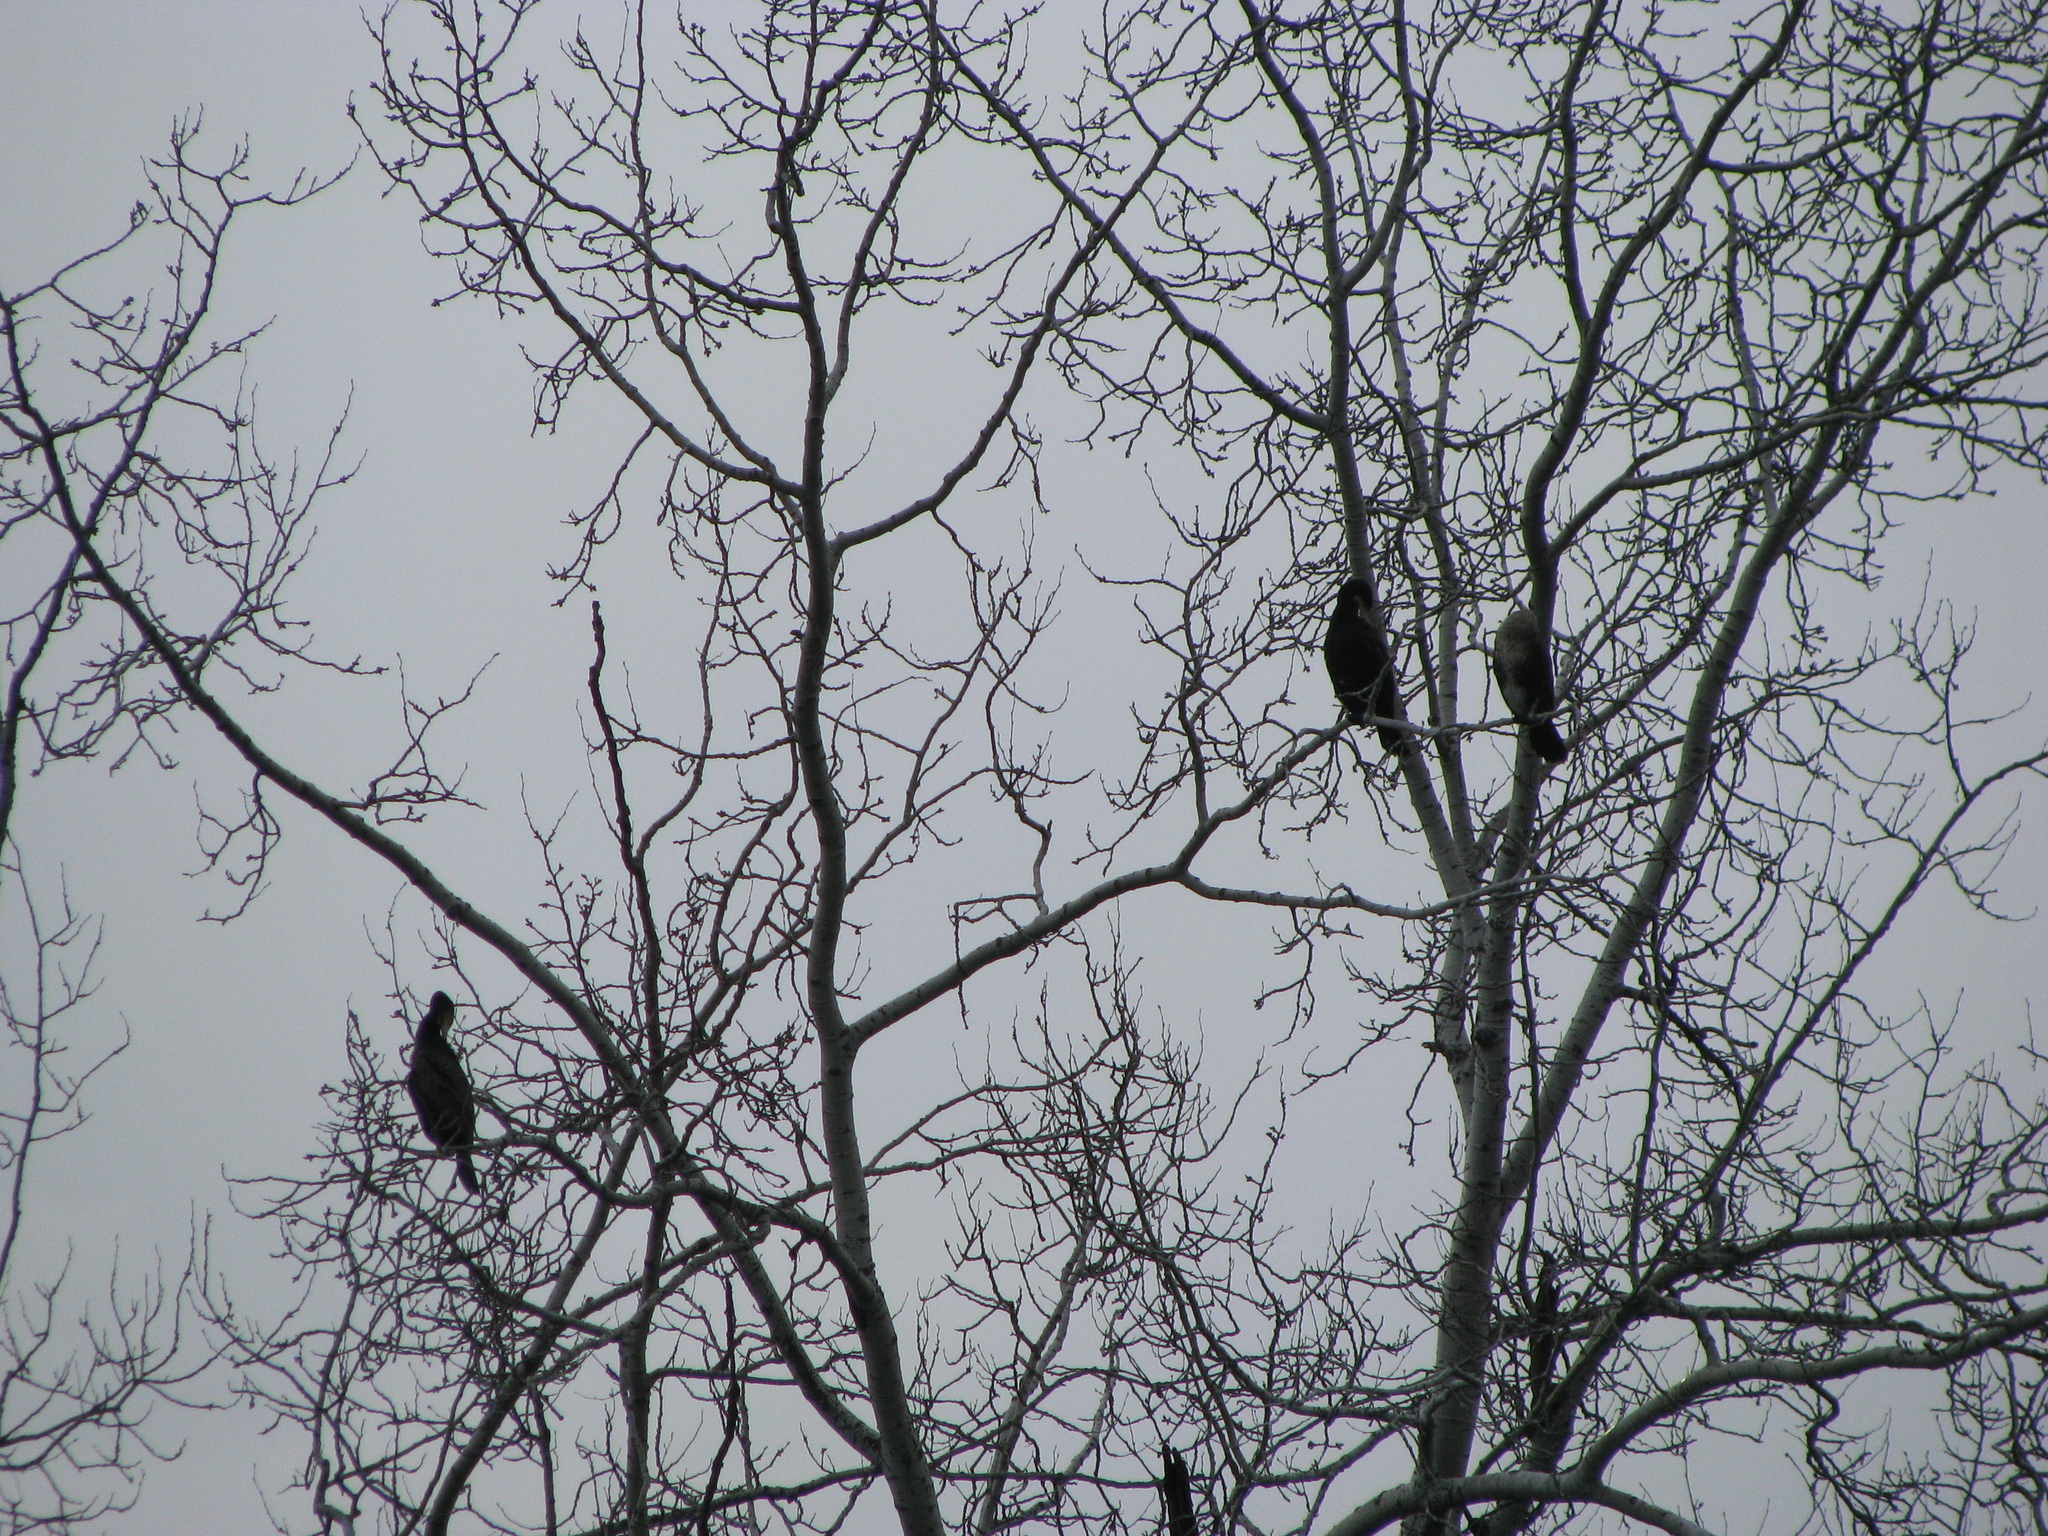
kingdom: Animalia
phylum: Chordata
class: Aves
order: Suliformes
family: Phalacrocoracidae
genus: Phalacrocorax
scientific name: Phalacrocorax carbo
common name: Great cormorant
